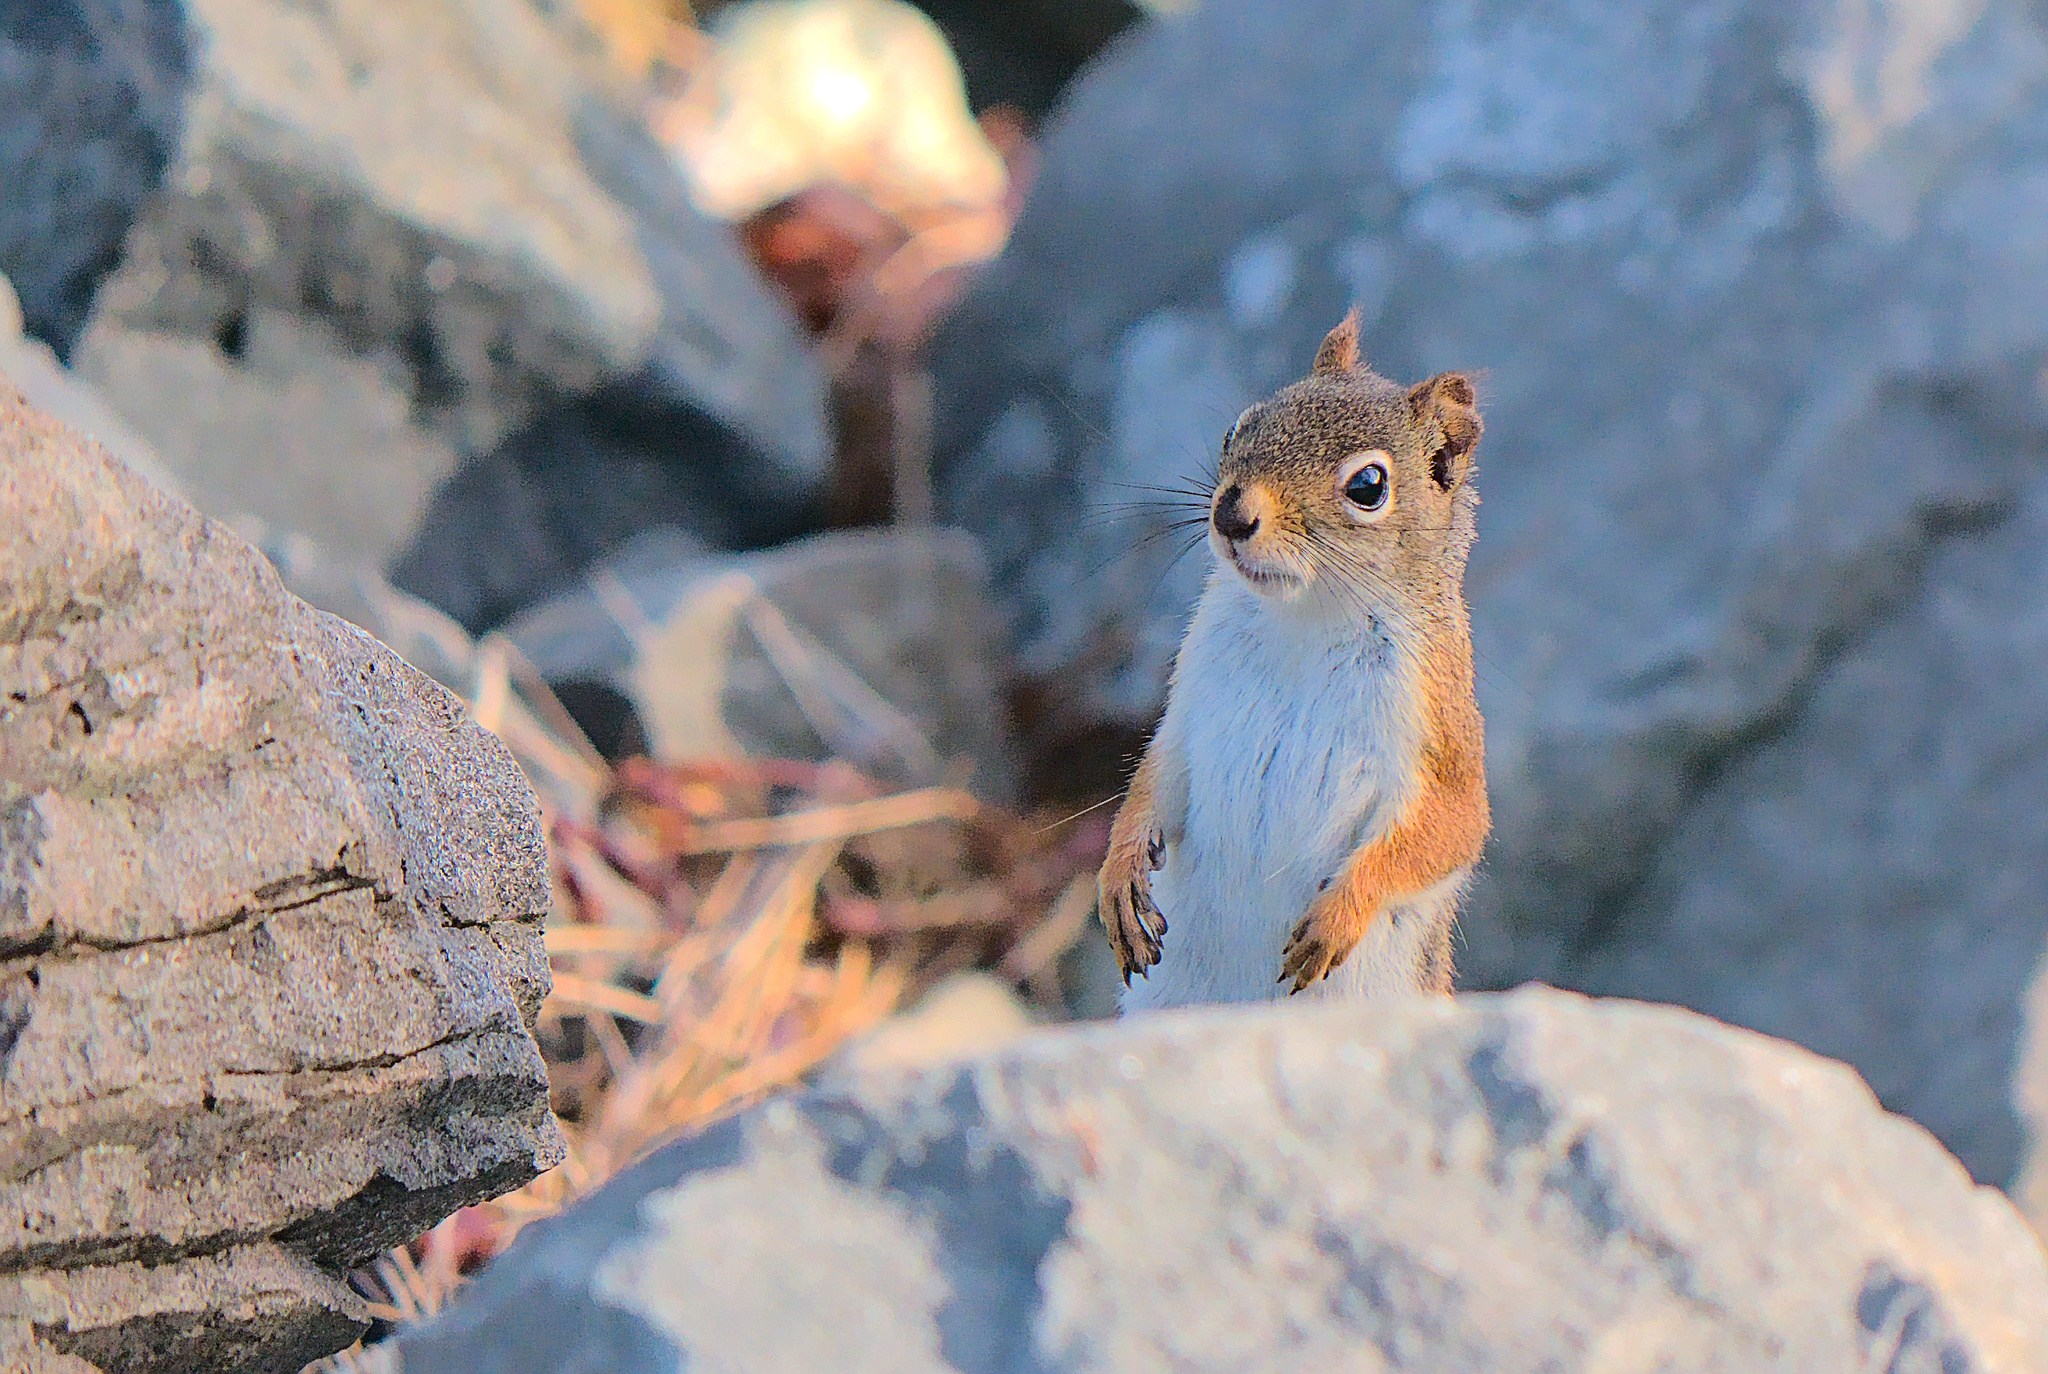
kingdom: Animalia
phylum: Chordata
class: Mammalia
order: Rodentia
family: Sciuridae
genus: Tamiasciurus
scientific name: Tamiasciurus hudsonicus
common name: Red squirrel
